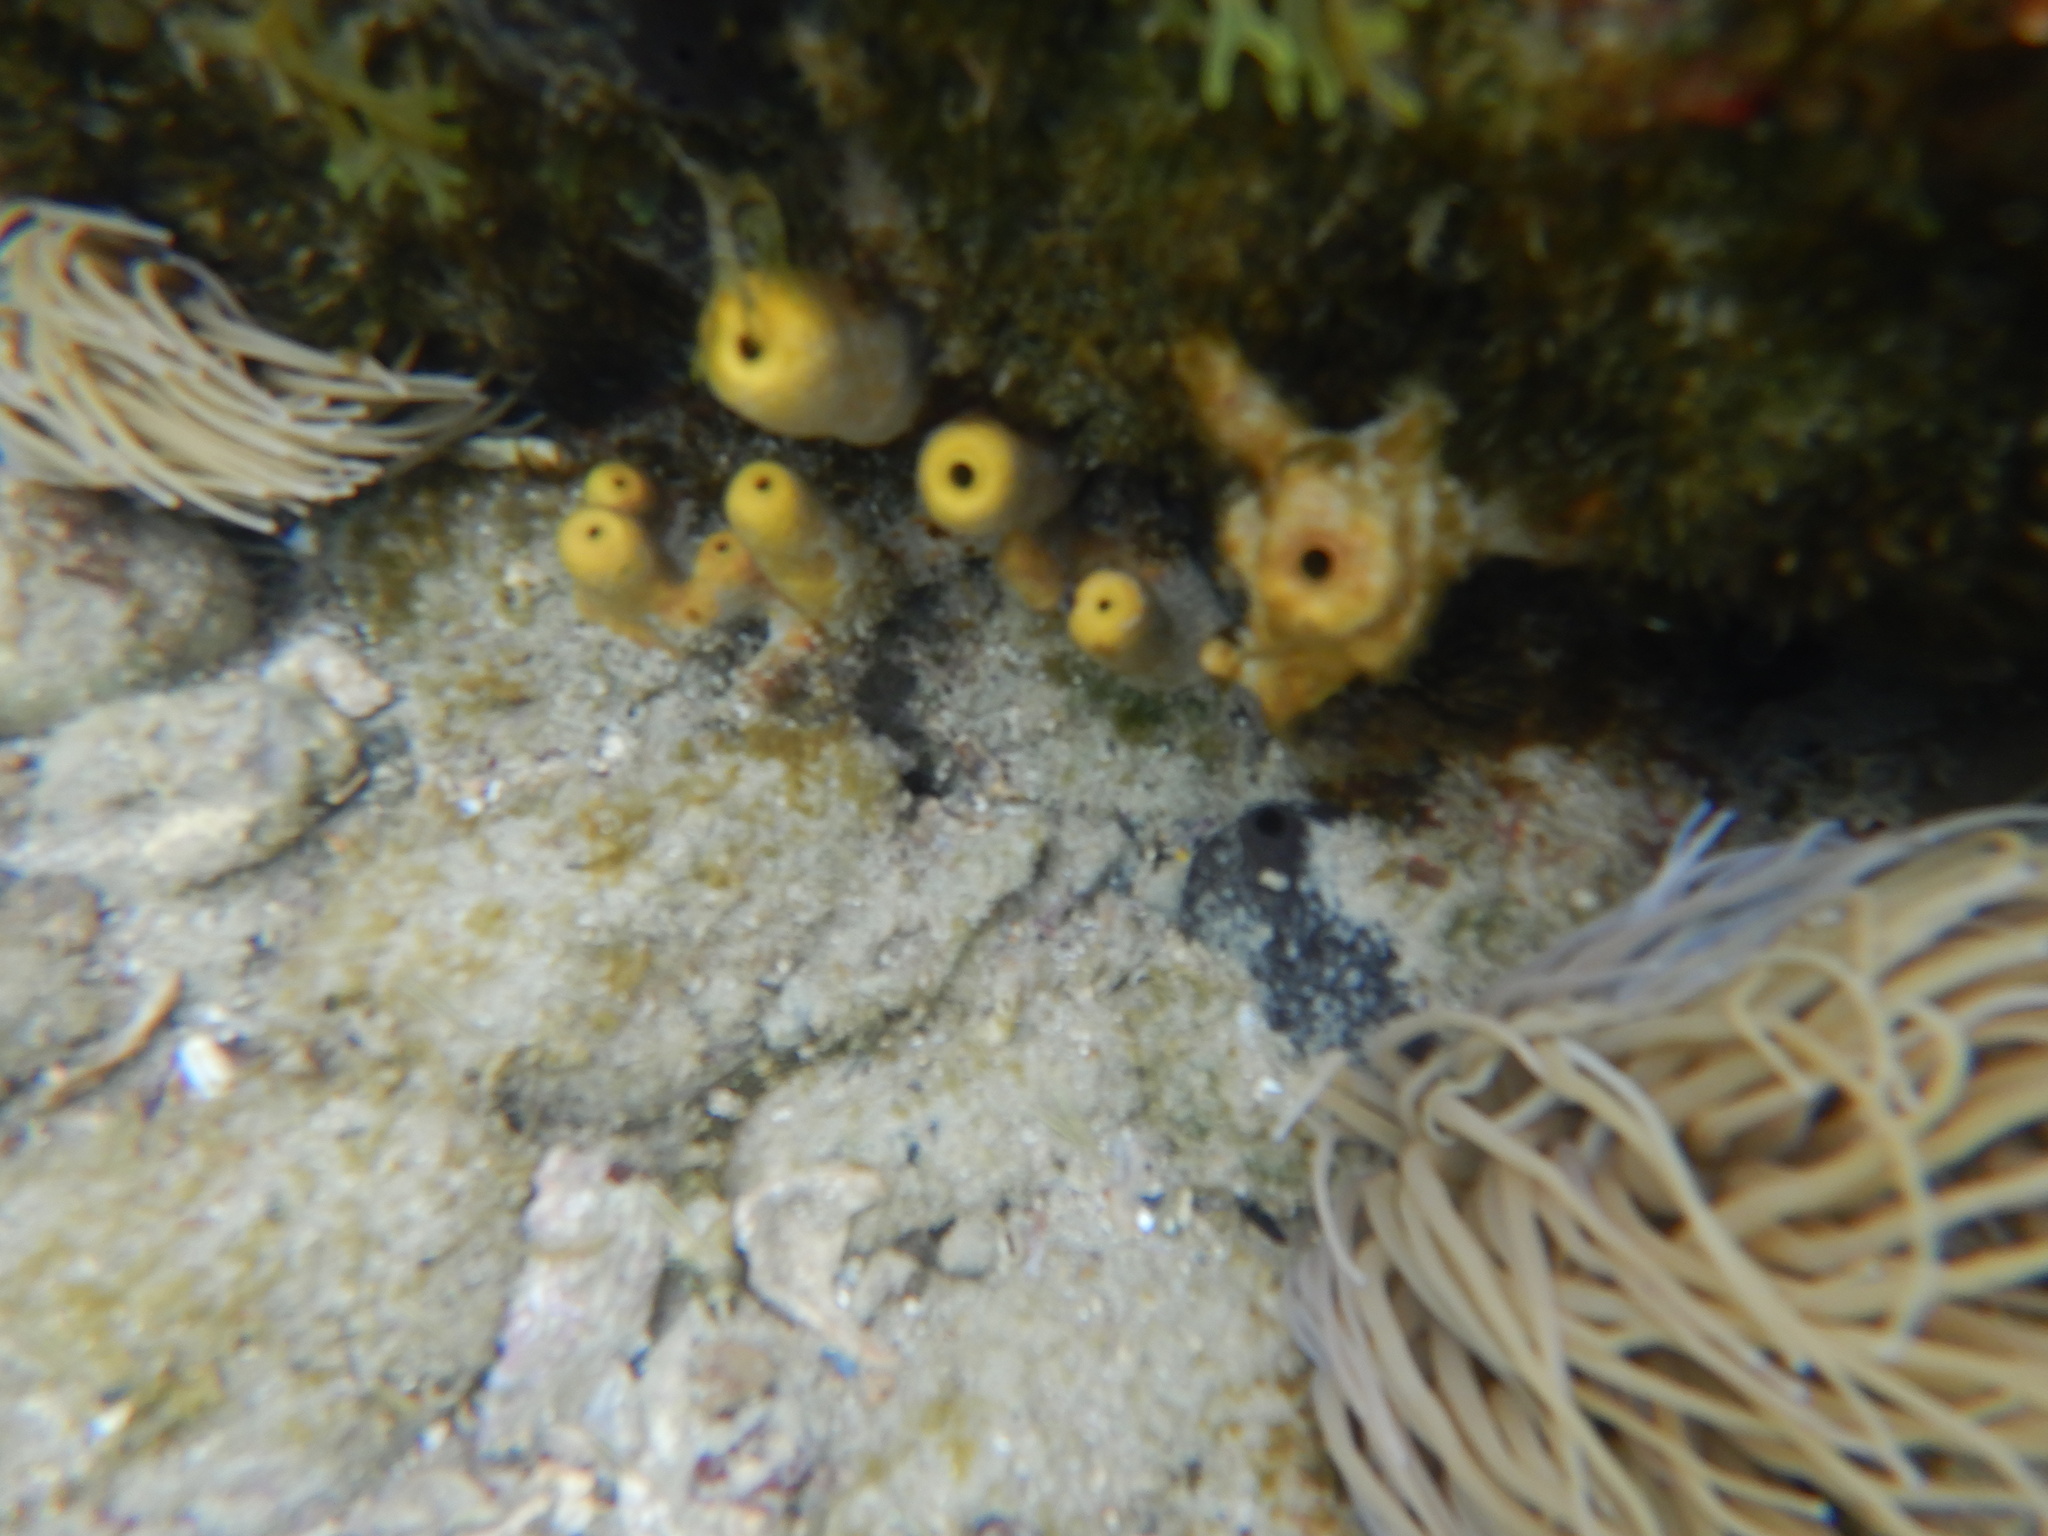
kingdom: Animalia
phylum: Porifera
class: Demospongiae
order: Verongiida
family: Aplysinidae
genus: Aplysina
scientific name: Aplysina aerophoba
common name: Aureate sponge
